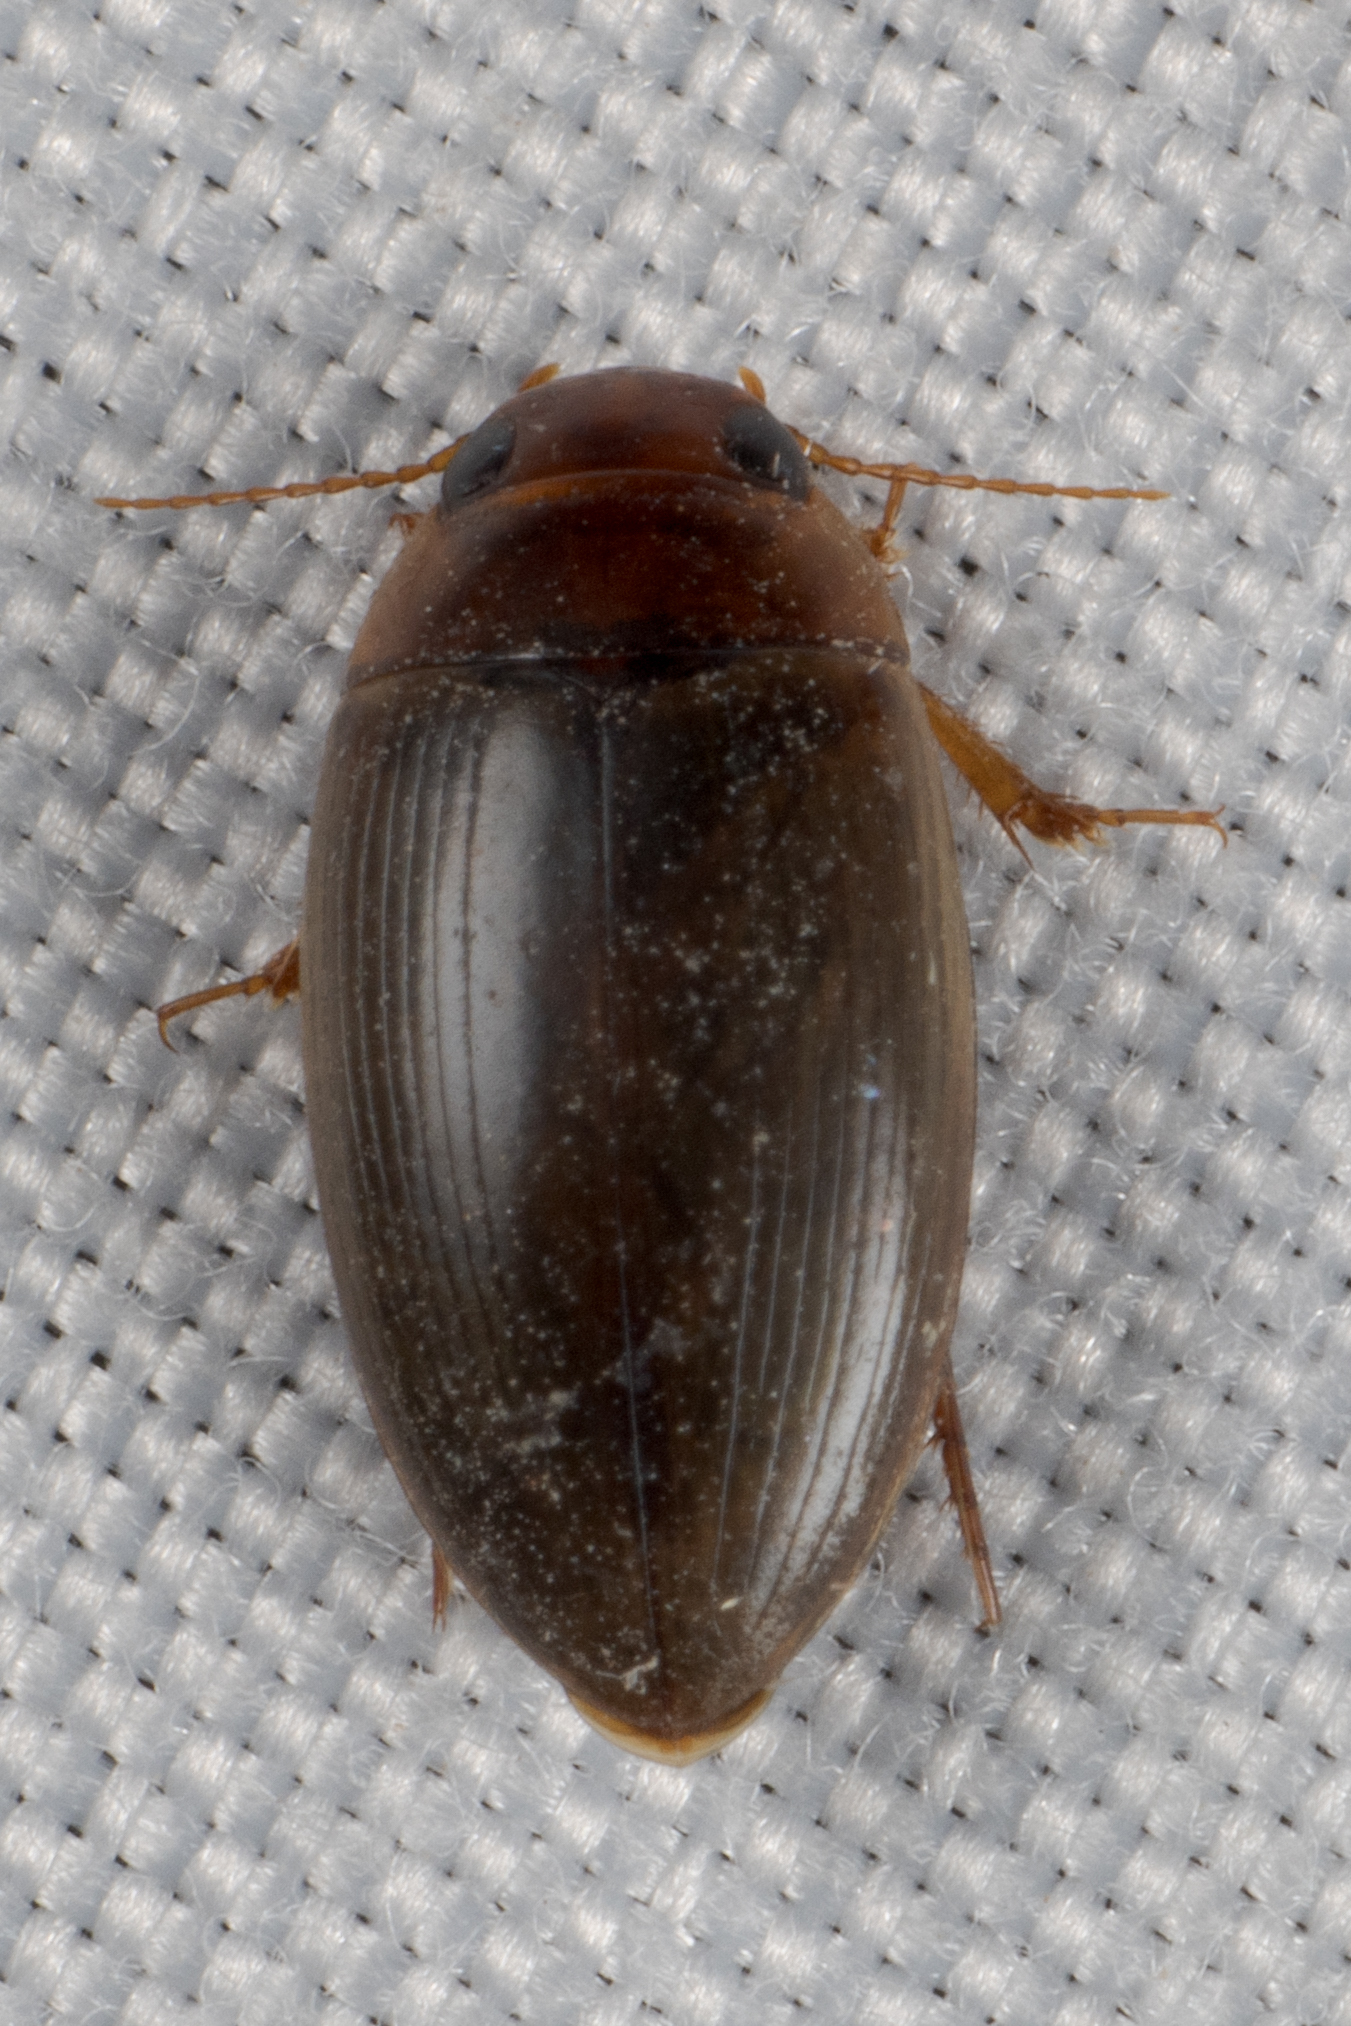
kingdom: Animalia
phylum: Arthropoda
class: Insecta
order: Coleoptera
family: Dytiscidae
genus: Copelatus
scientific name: Copelatus chevrolati
